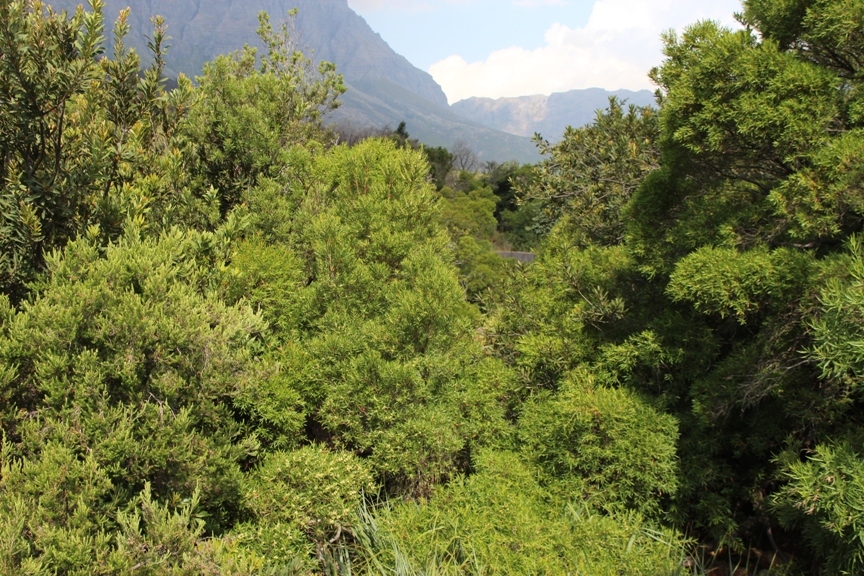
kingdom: Plantae
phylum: Tracheophyta
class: Magnoliopsida
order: Myrtales
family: Myrtaceae
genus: Callistemon
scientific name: Callistemon lanceolatus
